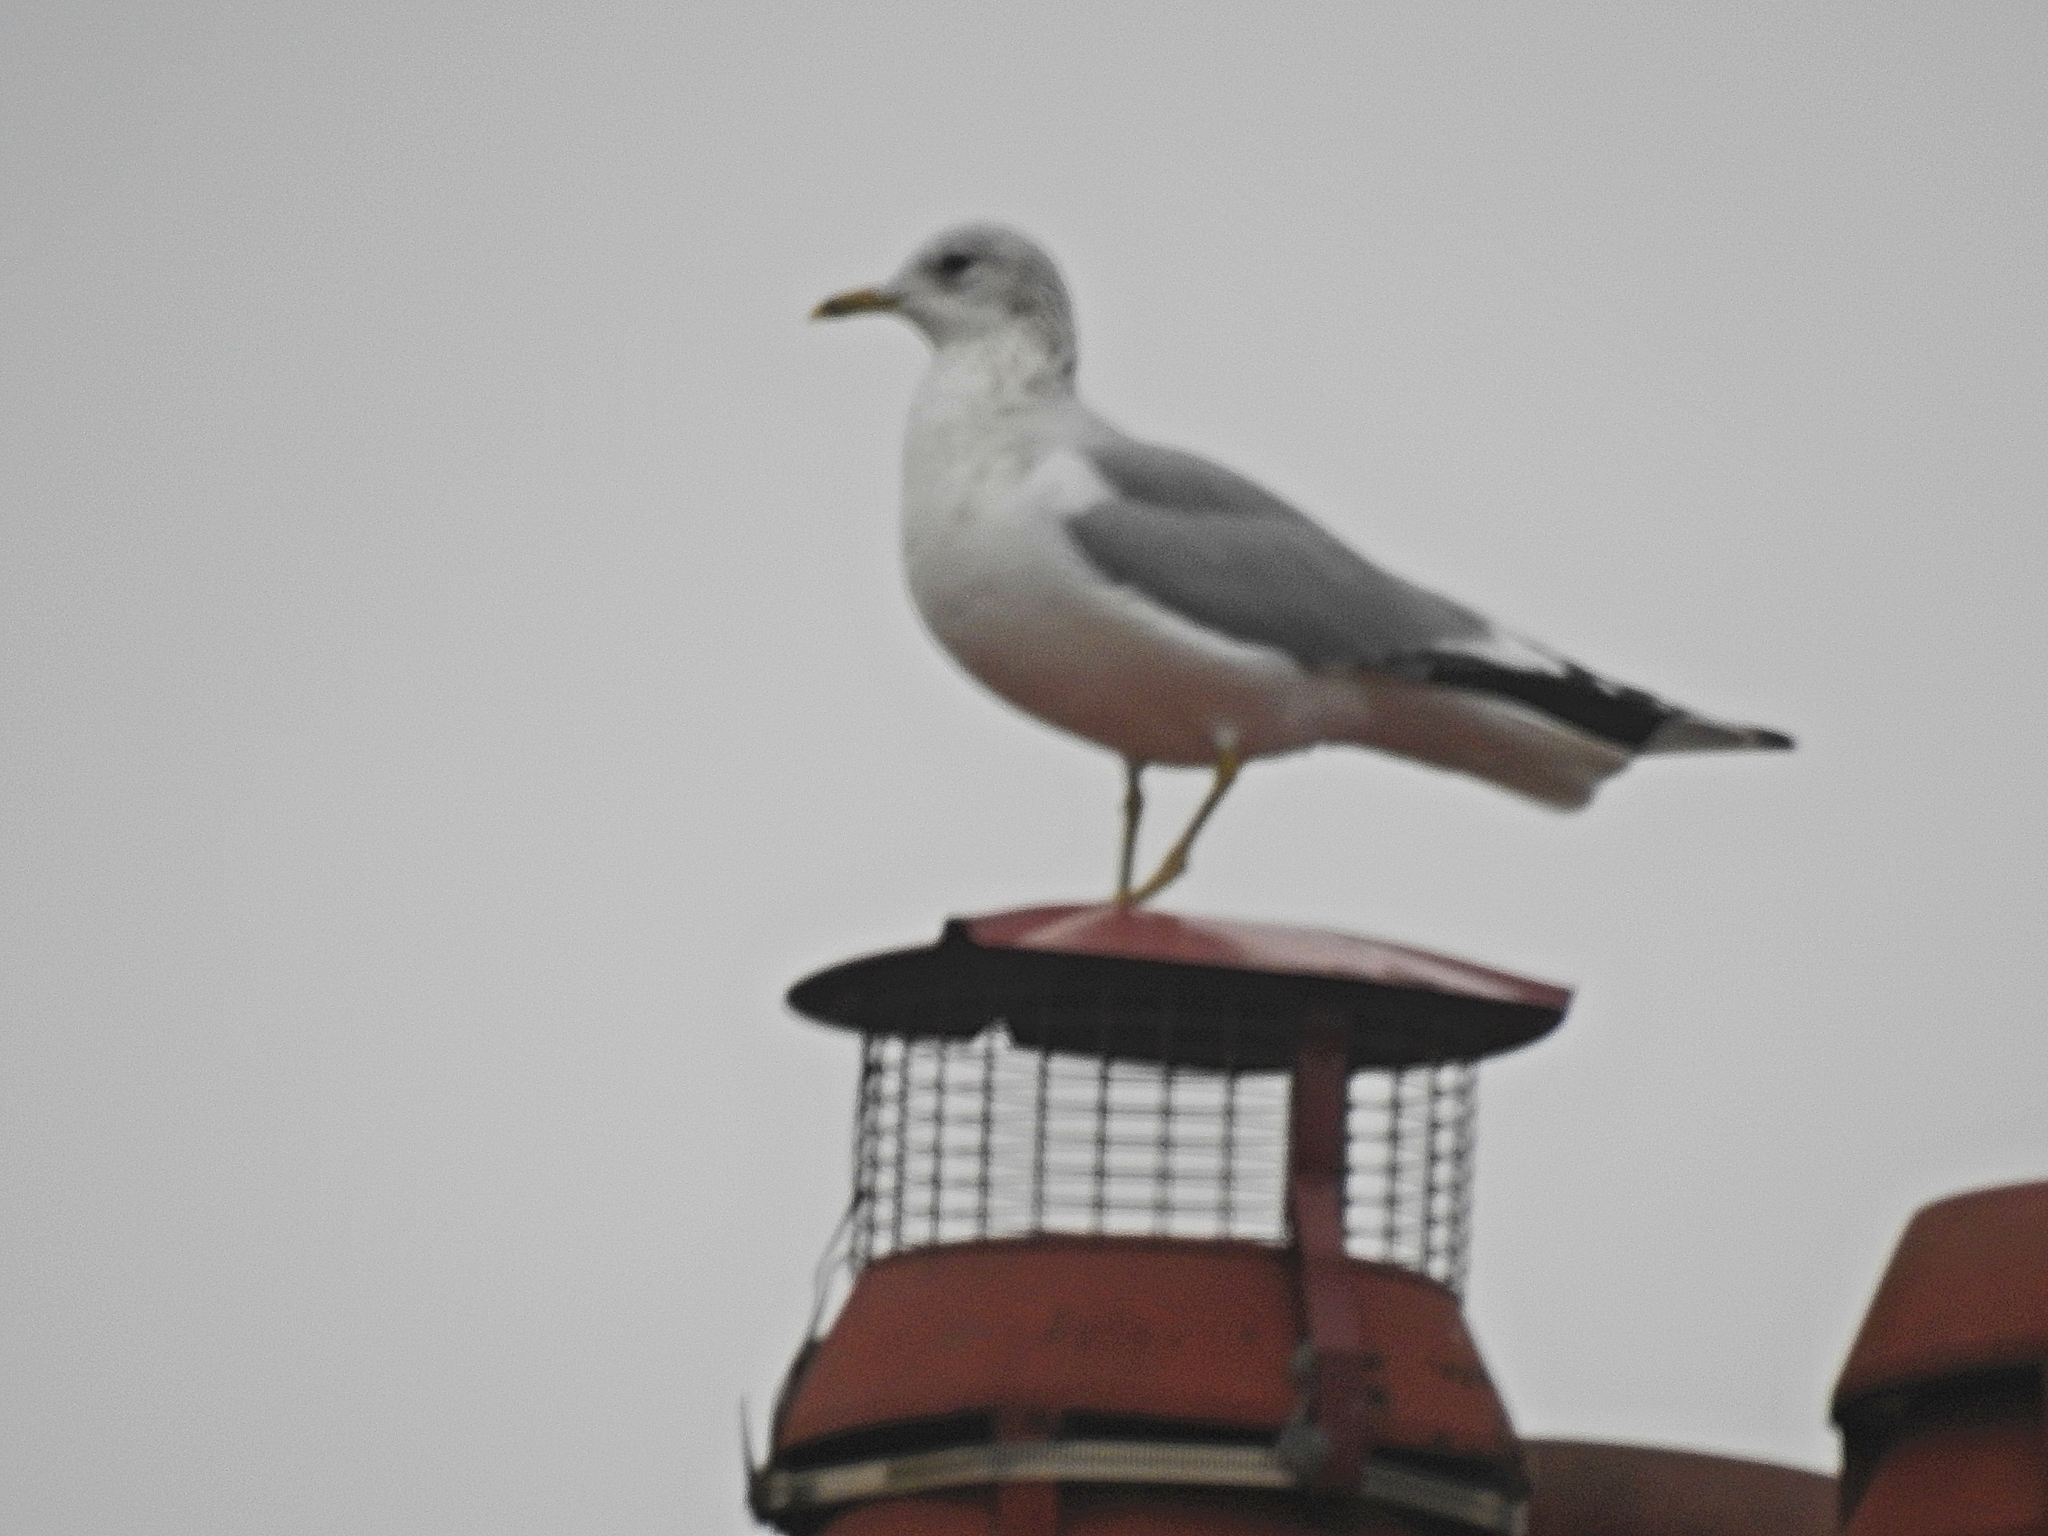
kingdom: Animalia
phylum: Chordata
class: Aves
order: Charadriiformes
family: Laridae
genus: Larus
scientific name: Larus canus
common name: Mew gull
